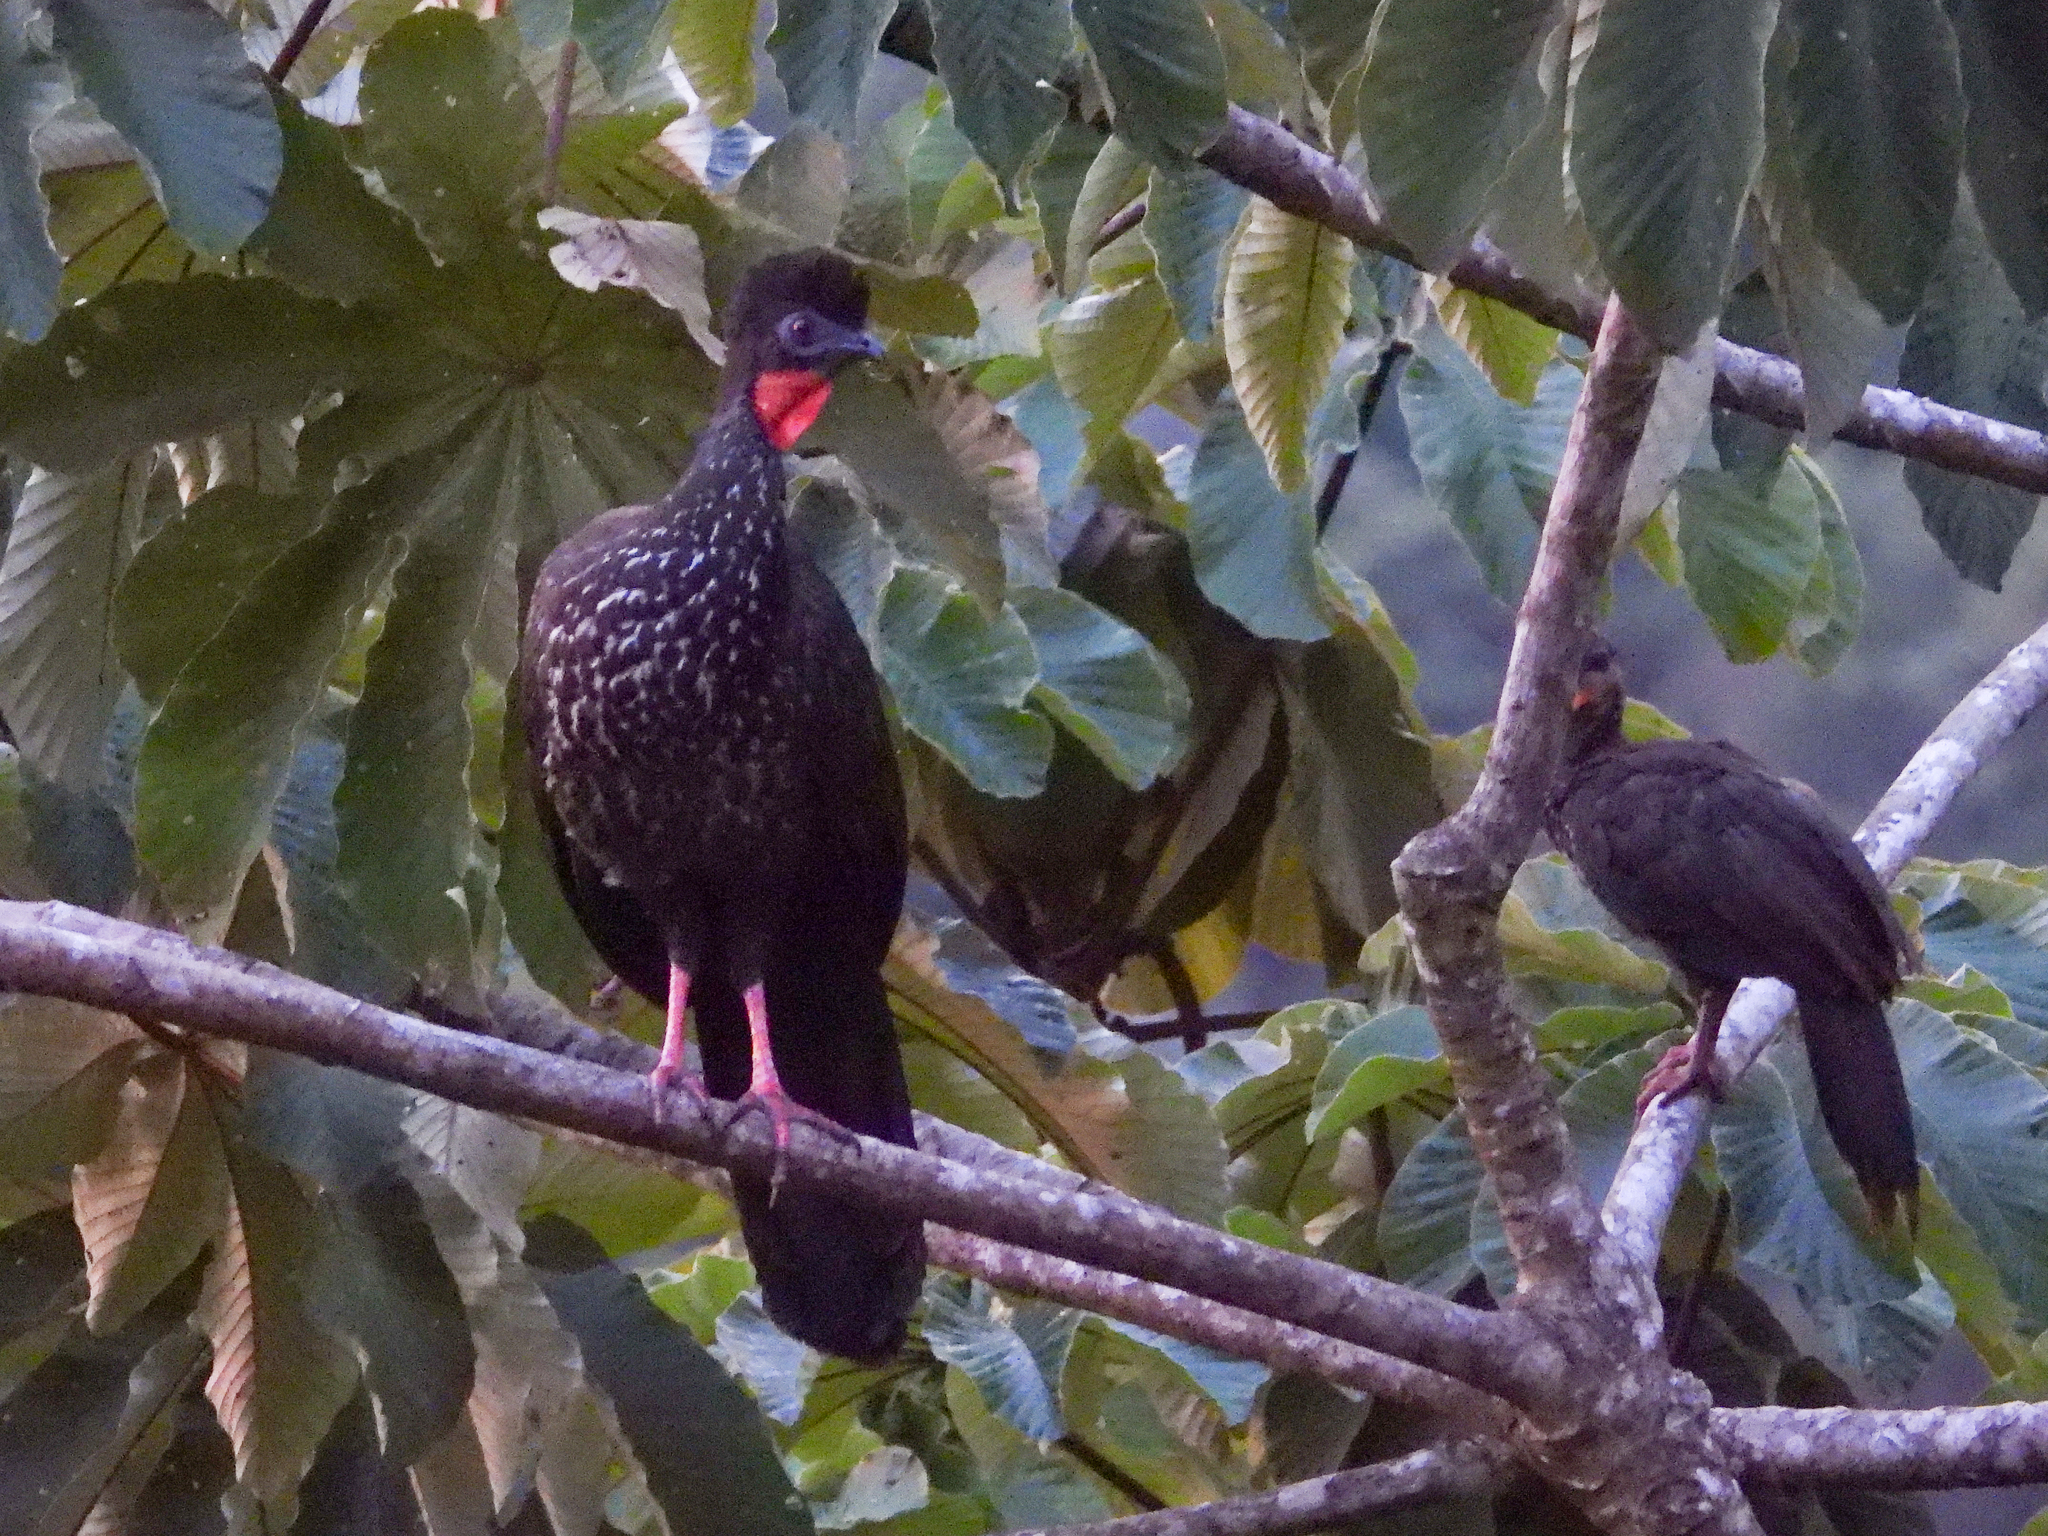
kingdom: Animalia
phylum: Chordata
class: Aves
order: Galliformes
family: Cracidae
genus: Penelope
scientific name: Penelope purpurascens
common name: Crested guan
